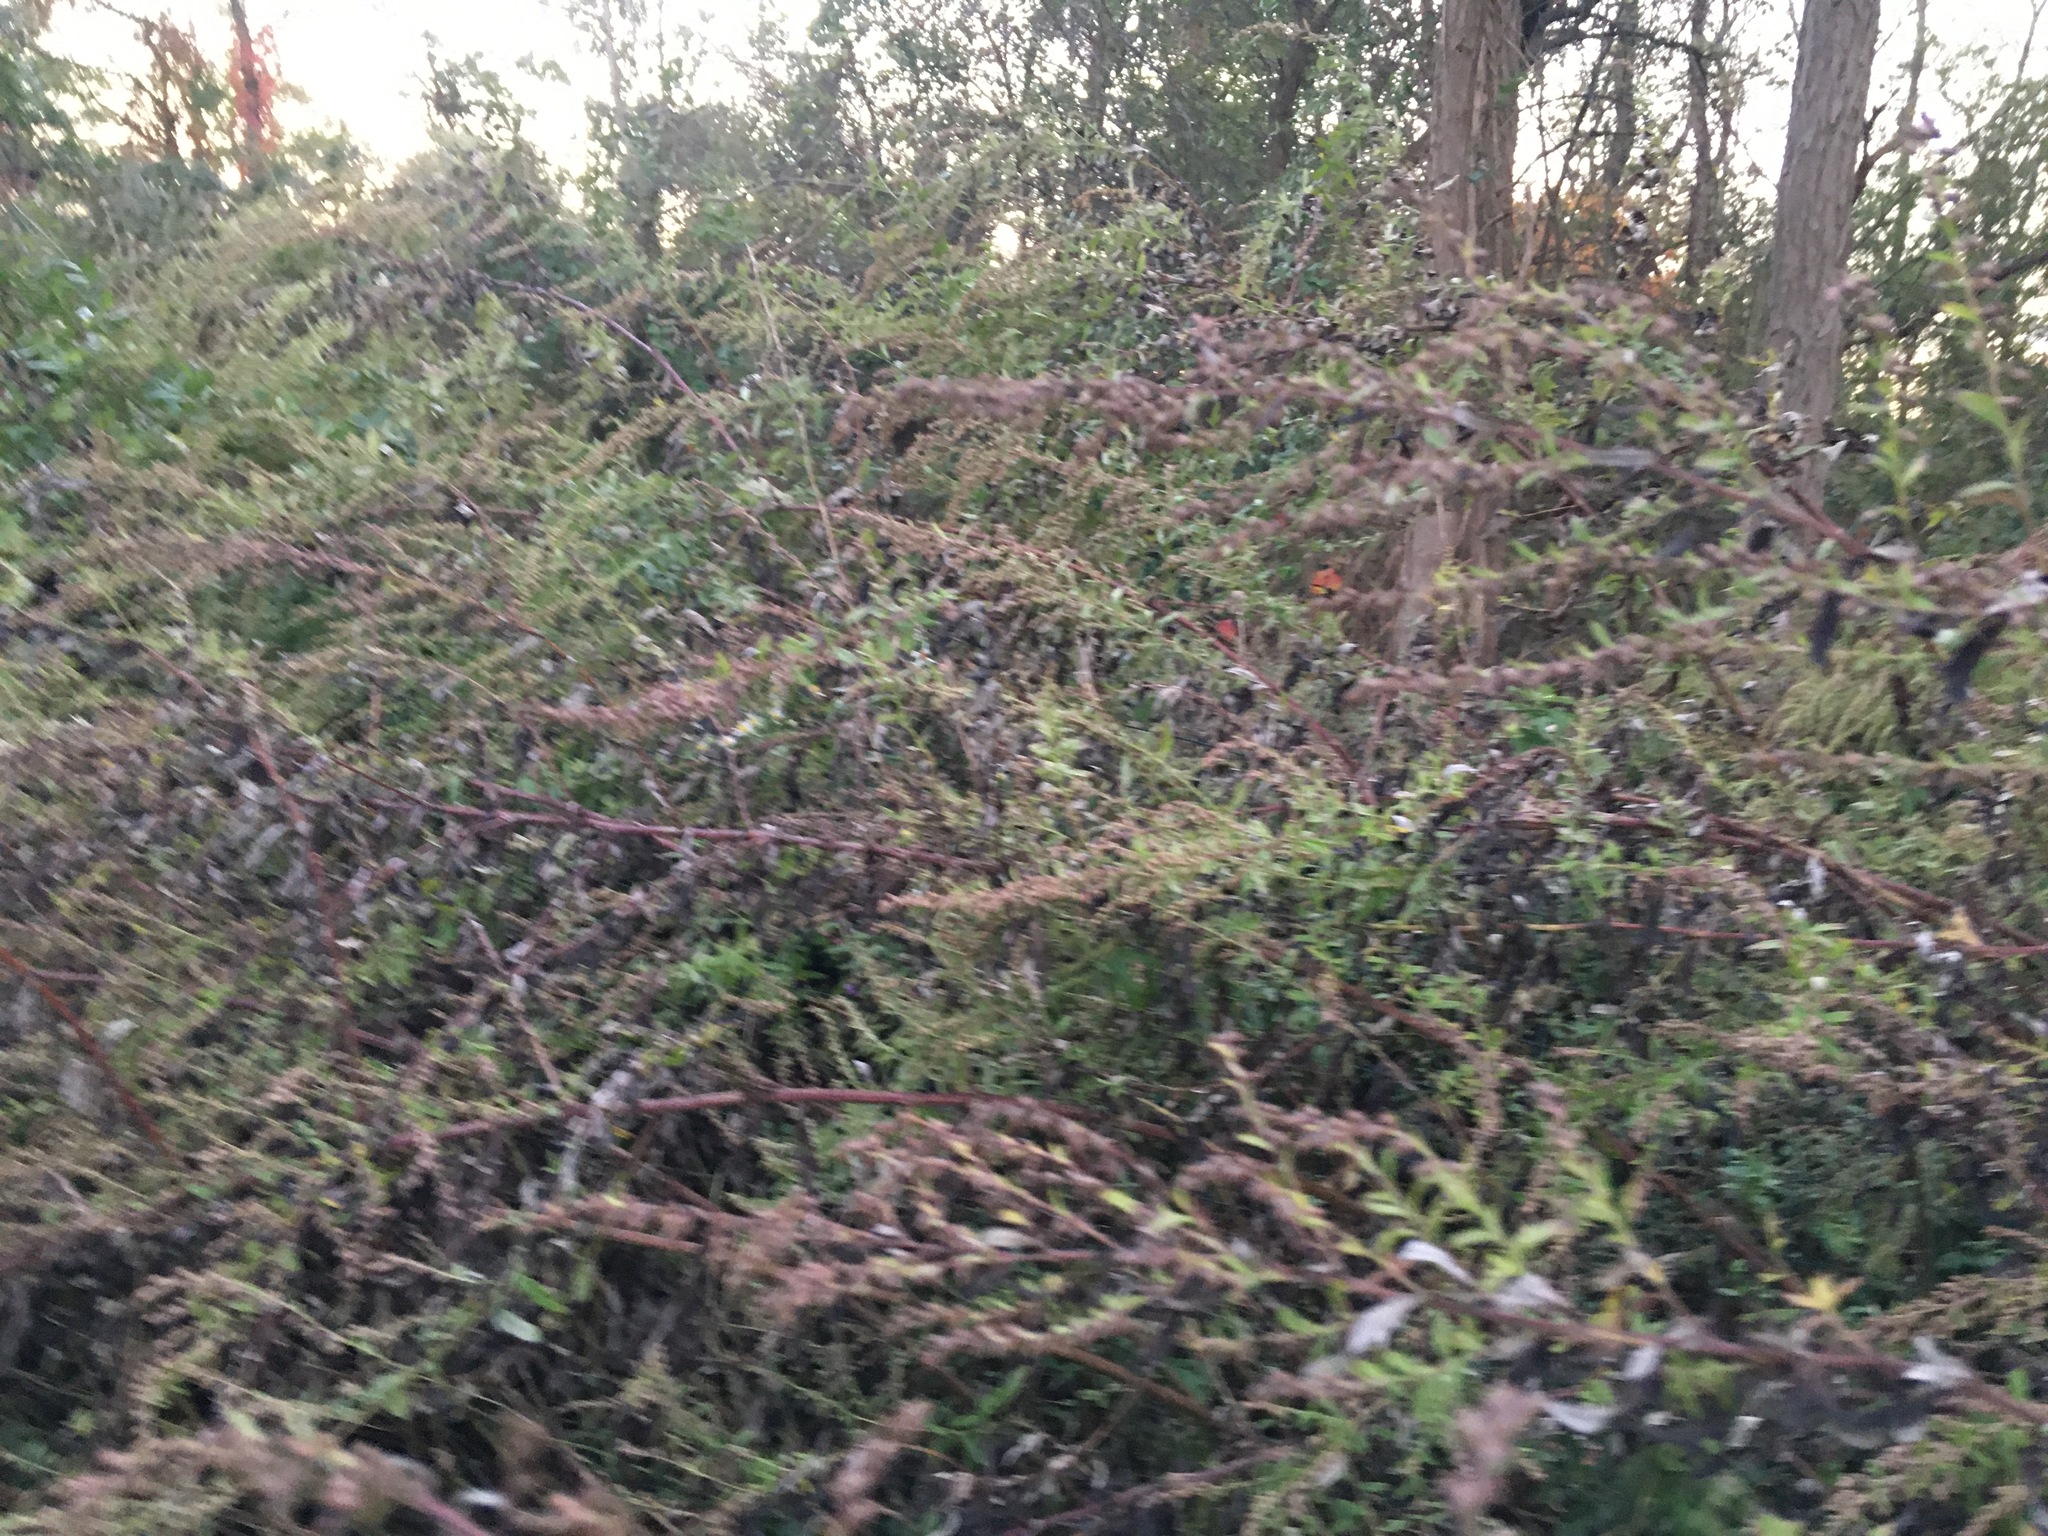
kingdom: Plantae
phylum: Tracheophyta
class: Magnoliopsida
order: Asterales
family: Asteraceae
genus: Artemisia
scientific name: Artemisia vulgaris
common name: Mugwort
